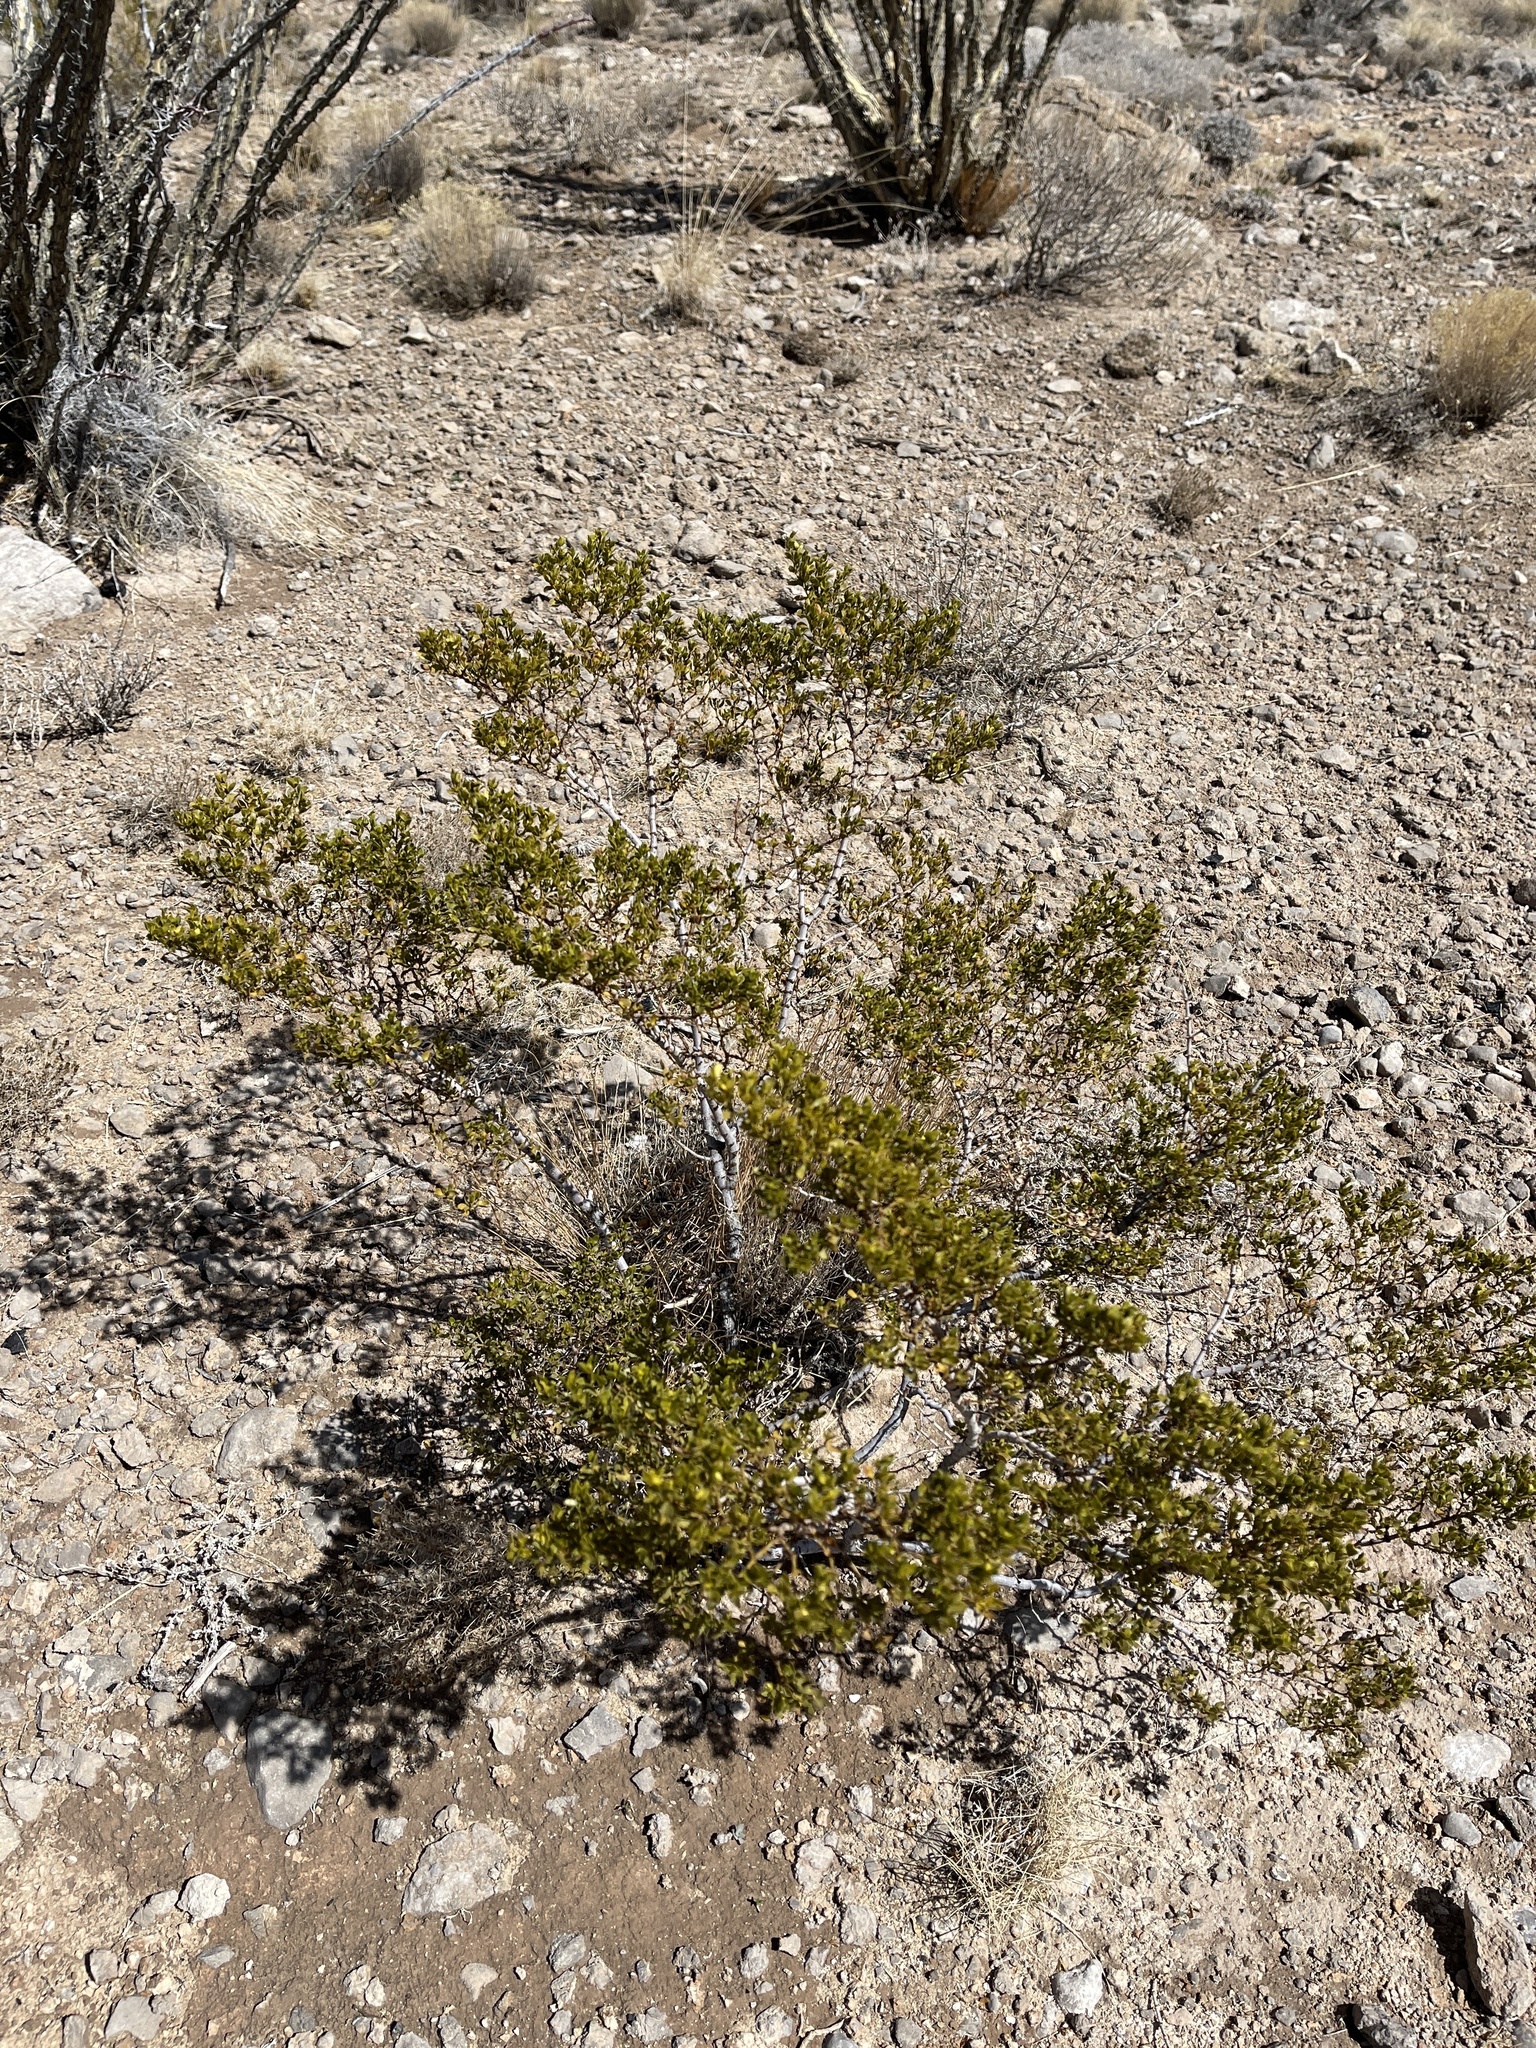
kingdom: Plantae
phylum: Tracheophyta
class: Magnoliopsida
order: Zygophyllales
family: Zygophyllaceae
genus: Larrea
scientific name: Larrea tridentata
